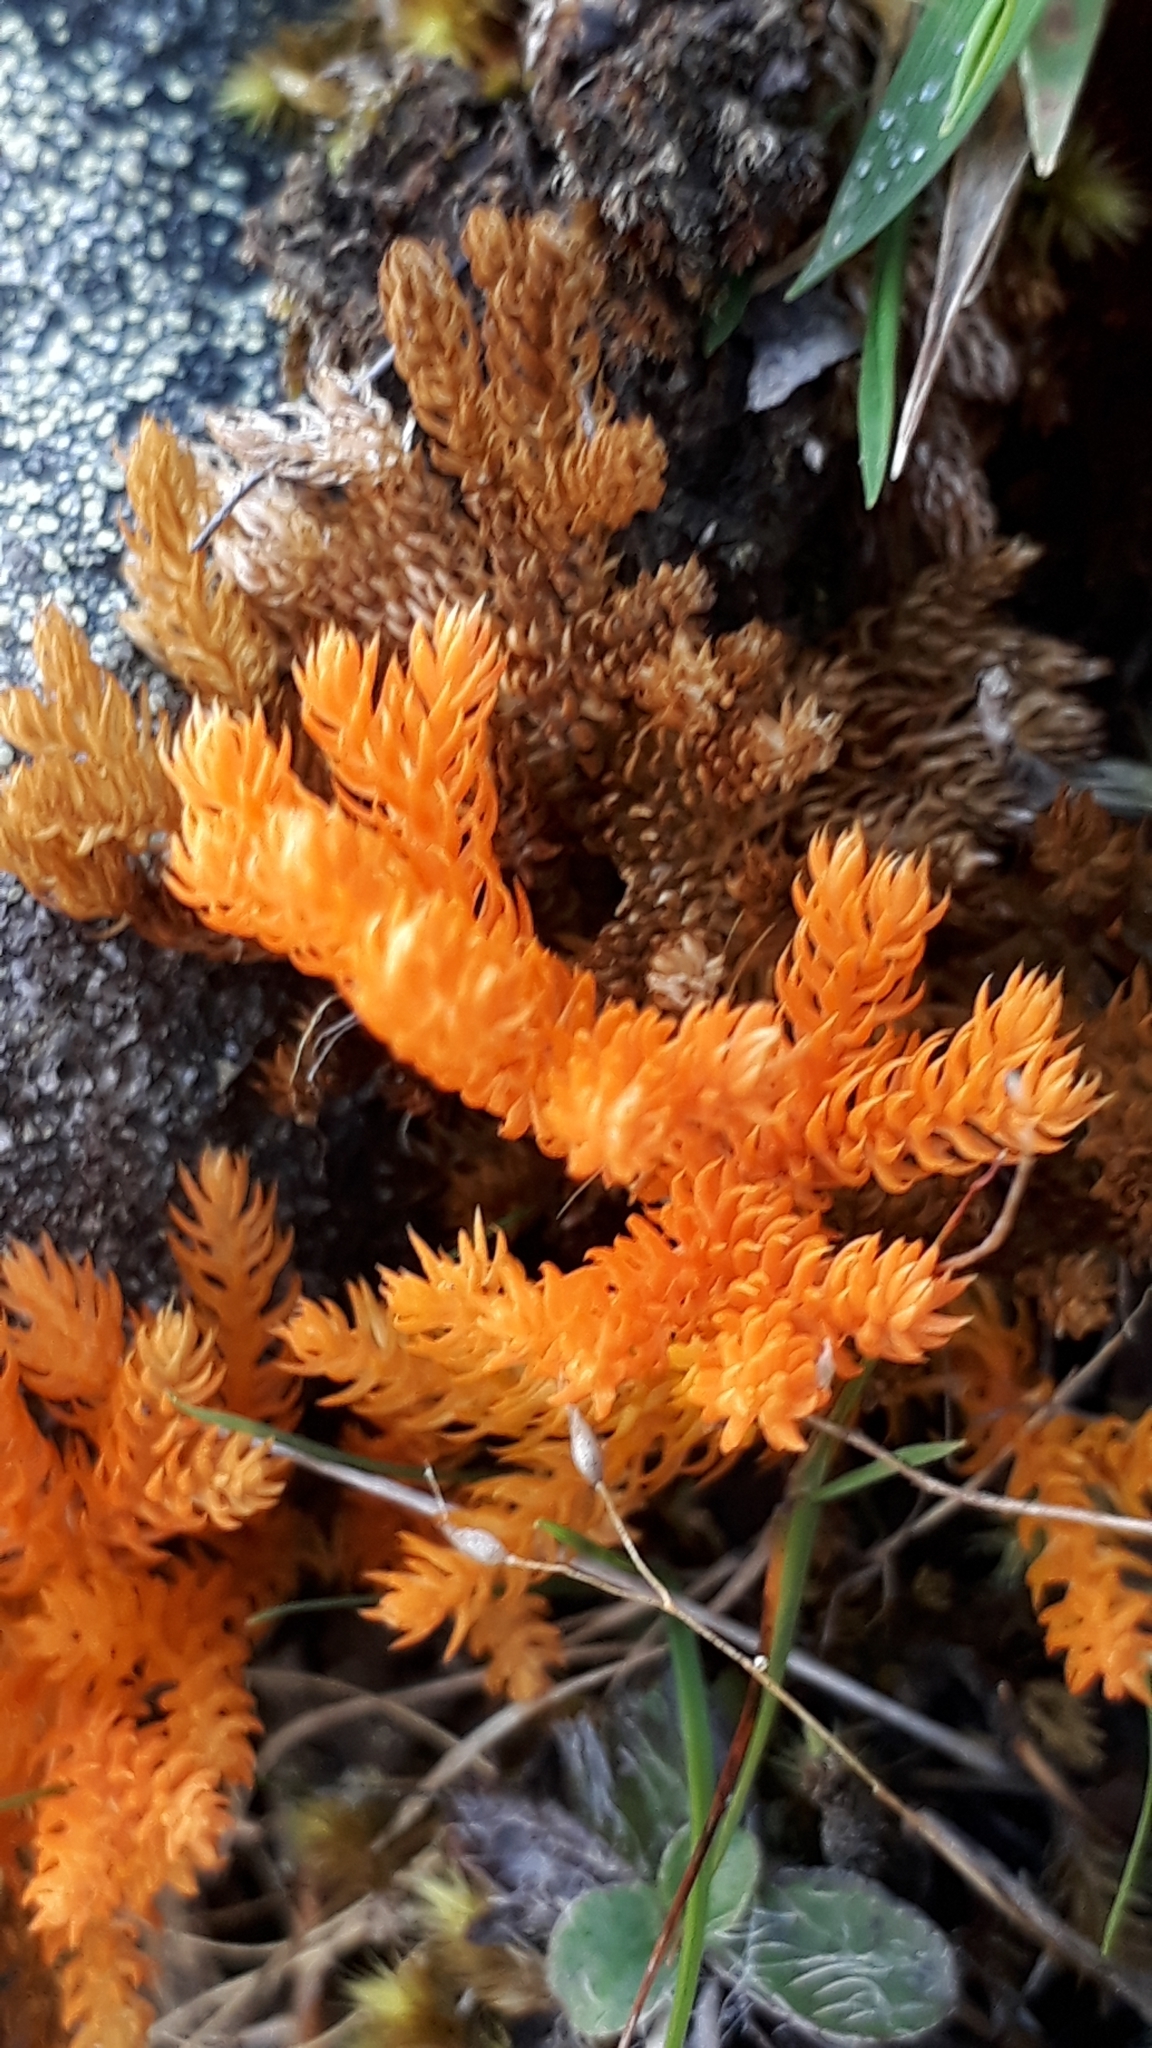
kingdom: Plantae
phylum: Tracheophyta
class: Lycopodiopsida
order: Lycopodiales
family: Lycopodiaceae
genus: Austrolycopodium
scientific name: Austrolycopodium fastigiatum
